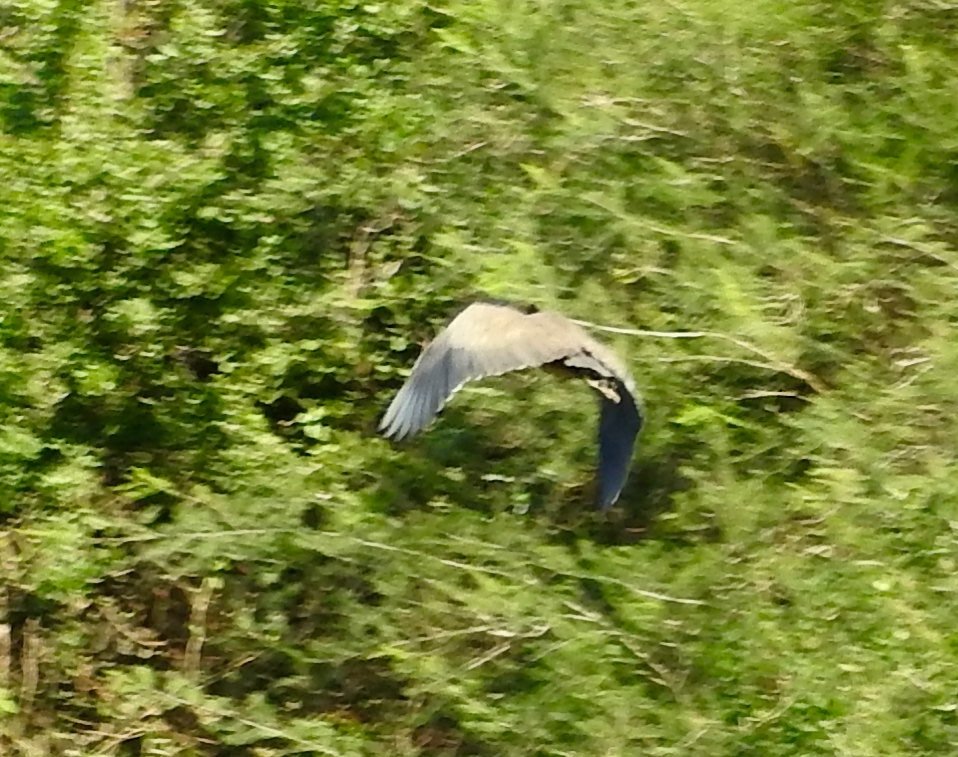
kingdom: Animalia
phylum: Chordata
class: Aves
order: Pelecaniformes
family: Ardeidae
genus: Tigrisoma
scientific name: Tigrisoma mexicanum
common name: Bare-throated tiger-heron
